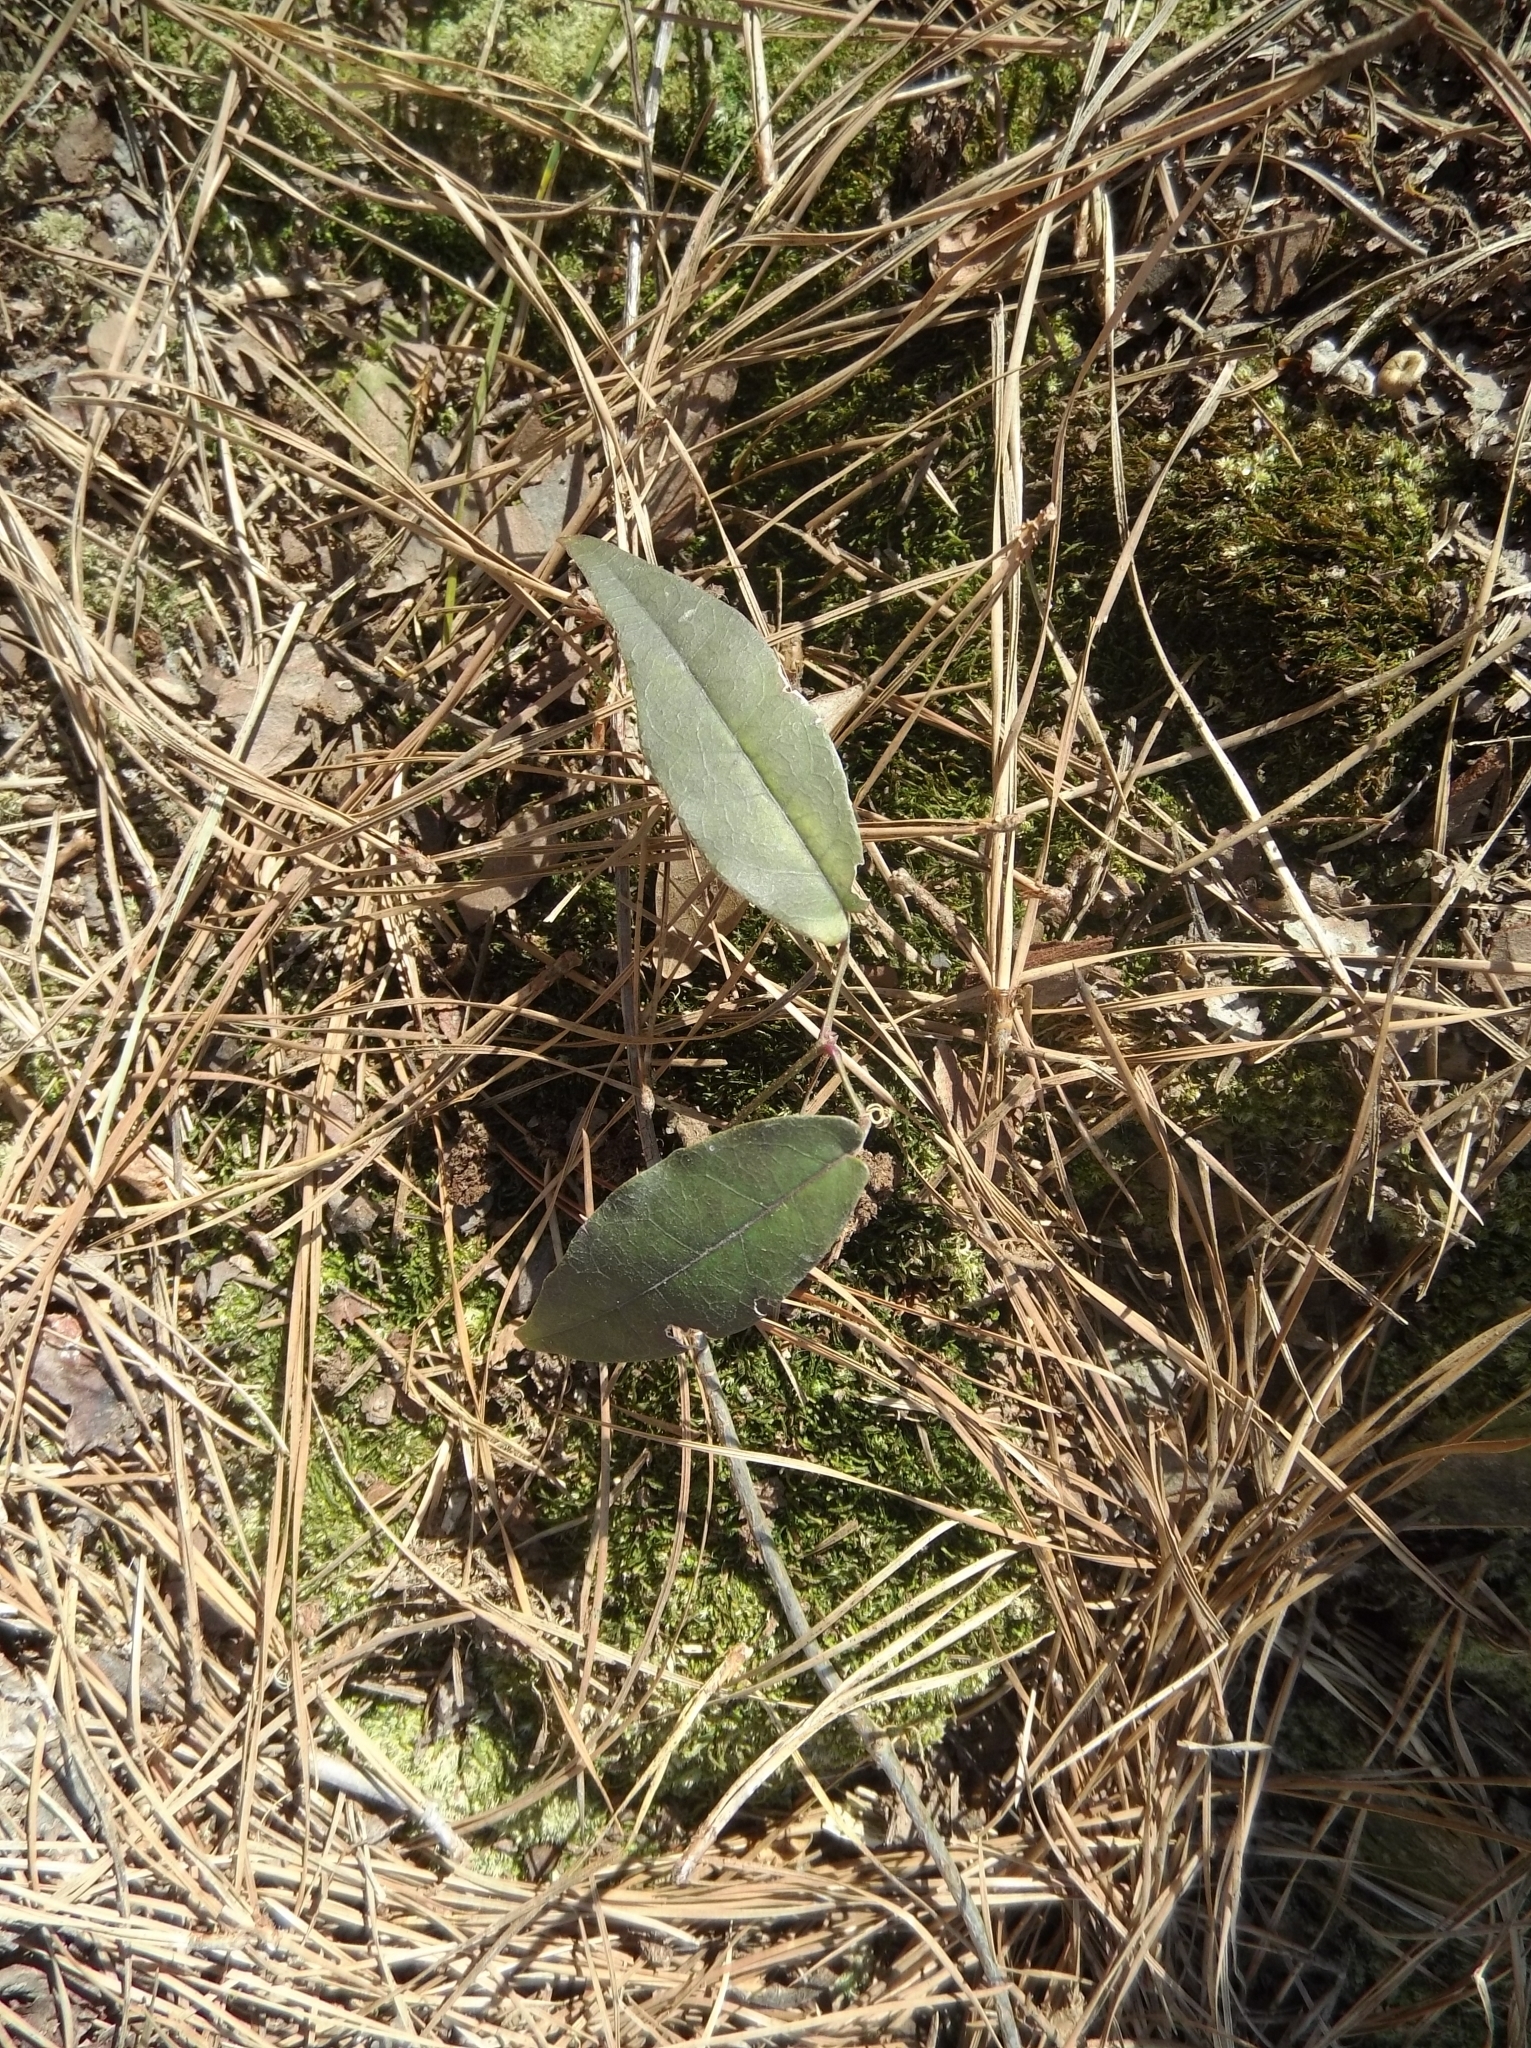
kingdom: Plantae
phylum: Tracheophyta
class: Magnoliopsida
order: Lamiales
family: Bignoniaceae
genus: Bignonia
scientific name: Bignonia capreolata
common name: Crossvine
